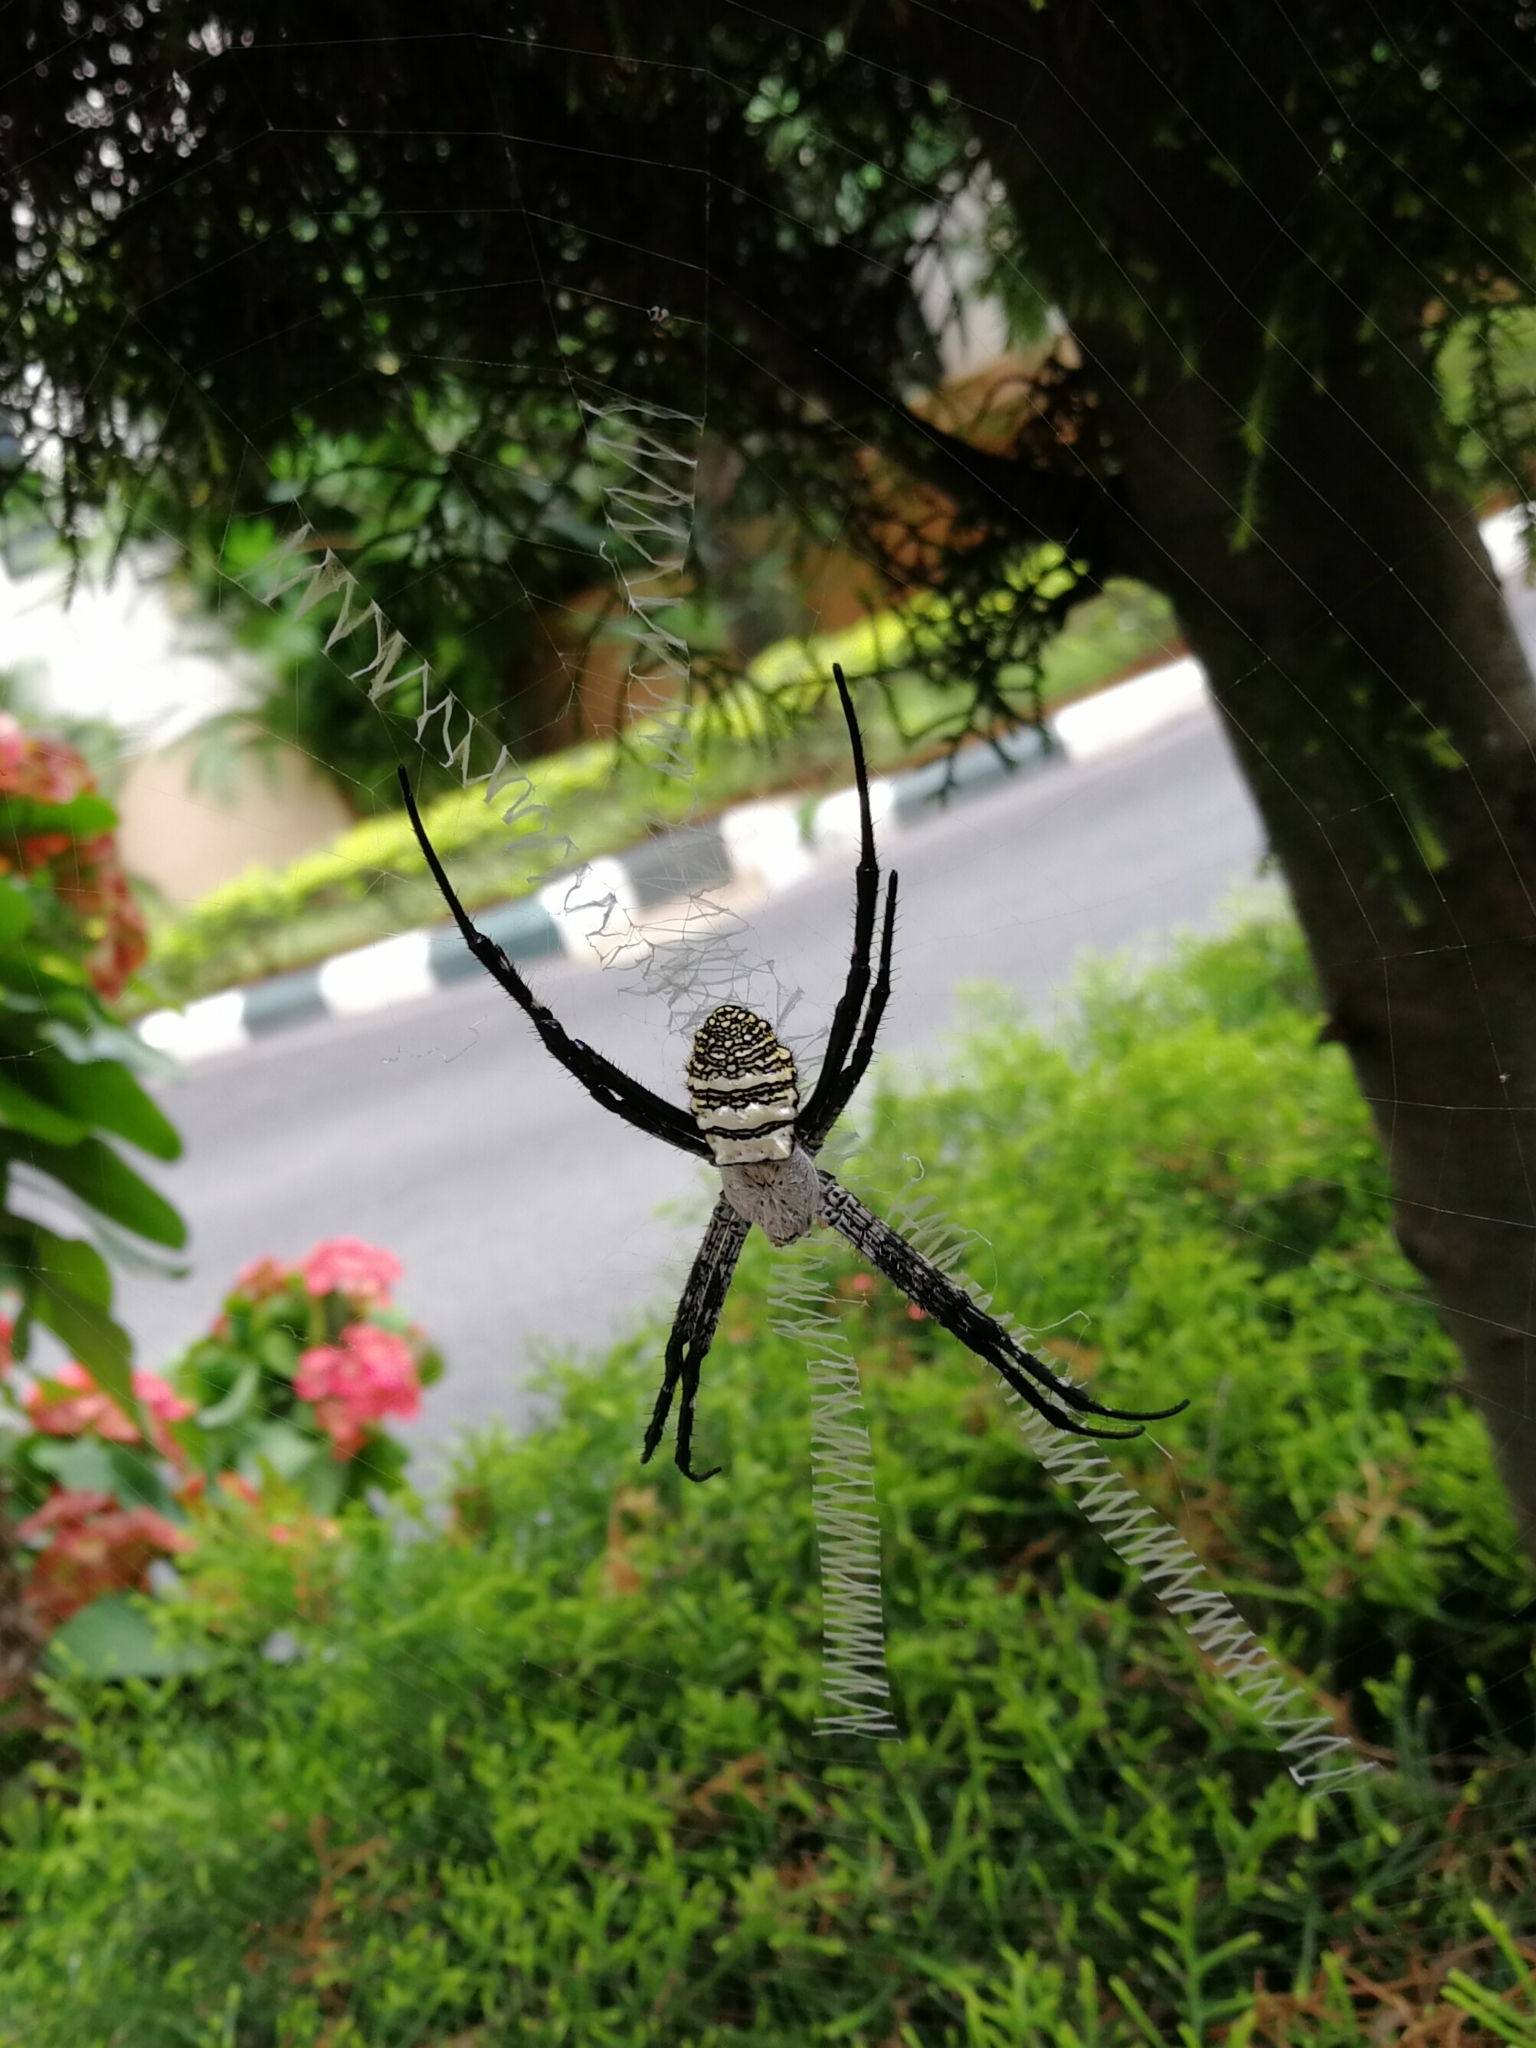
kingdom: Animalia
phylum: Arthropoda
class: Arachnida
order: Araneae
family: Araneidae
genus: Argiope
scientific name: Argiope aemula
